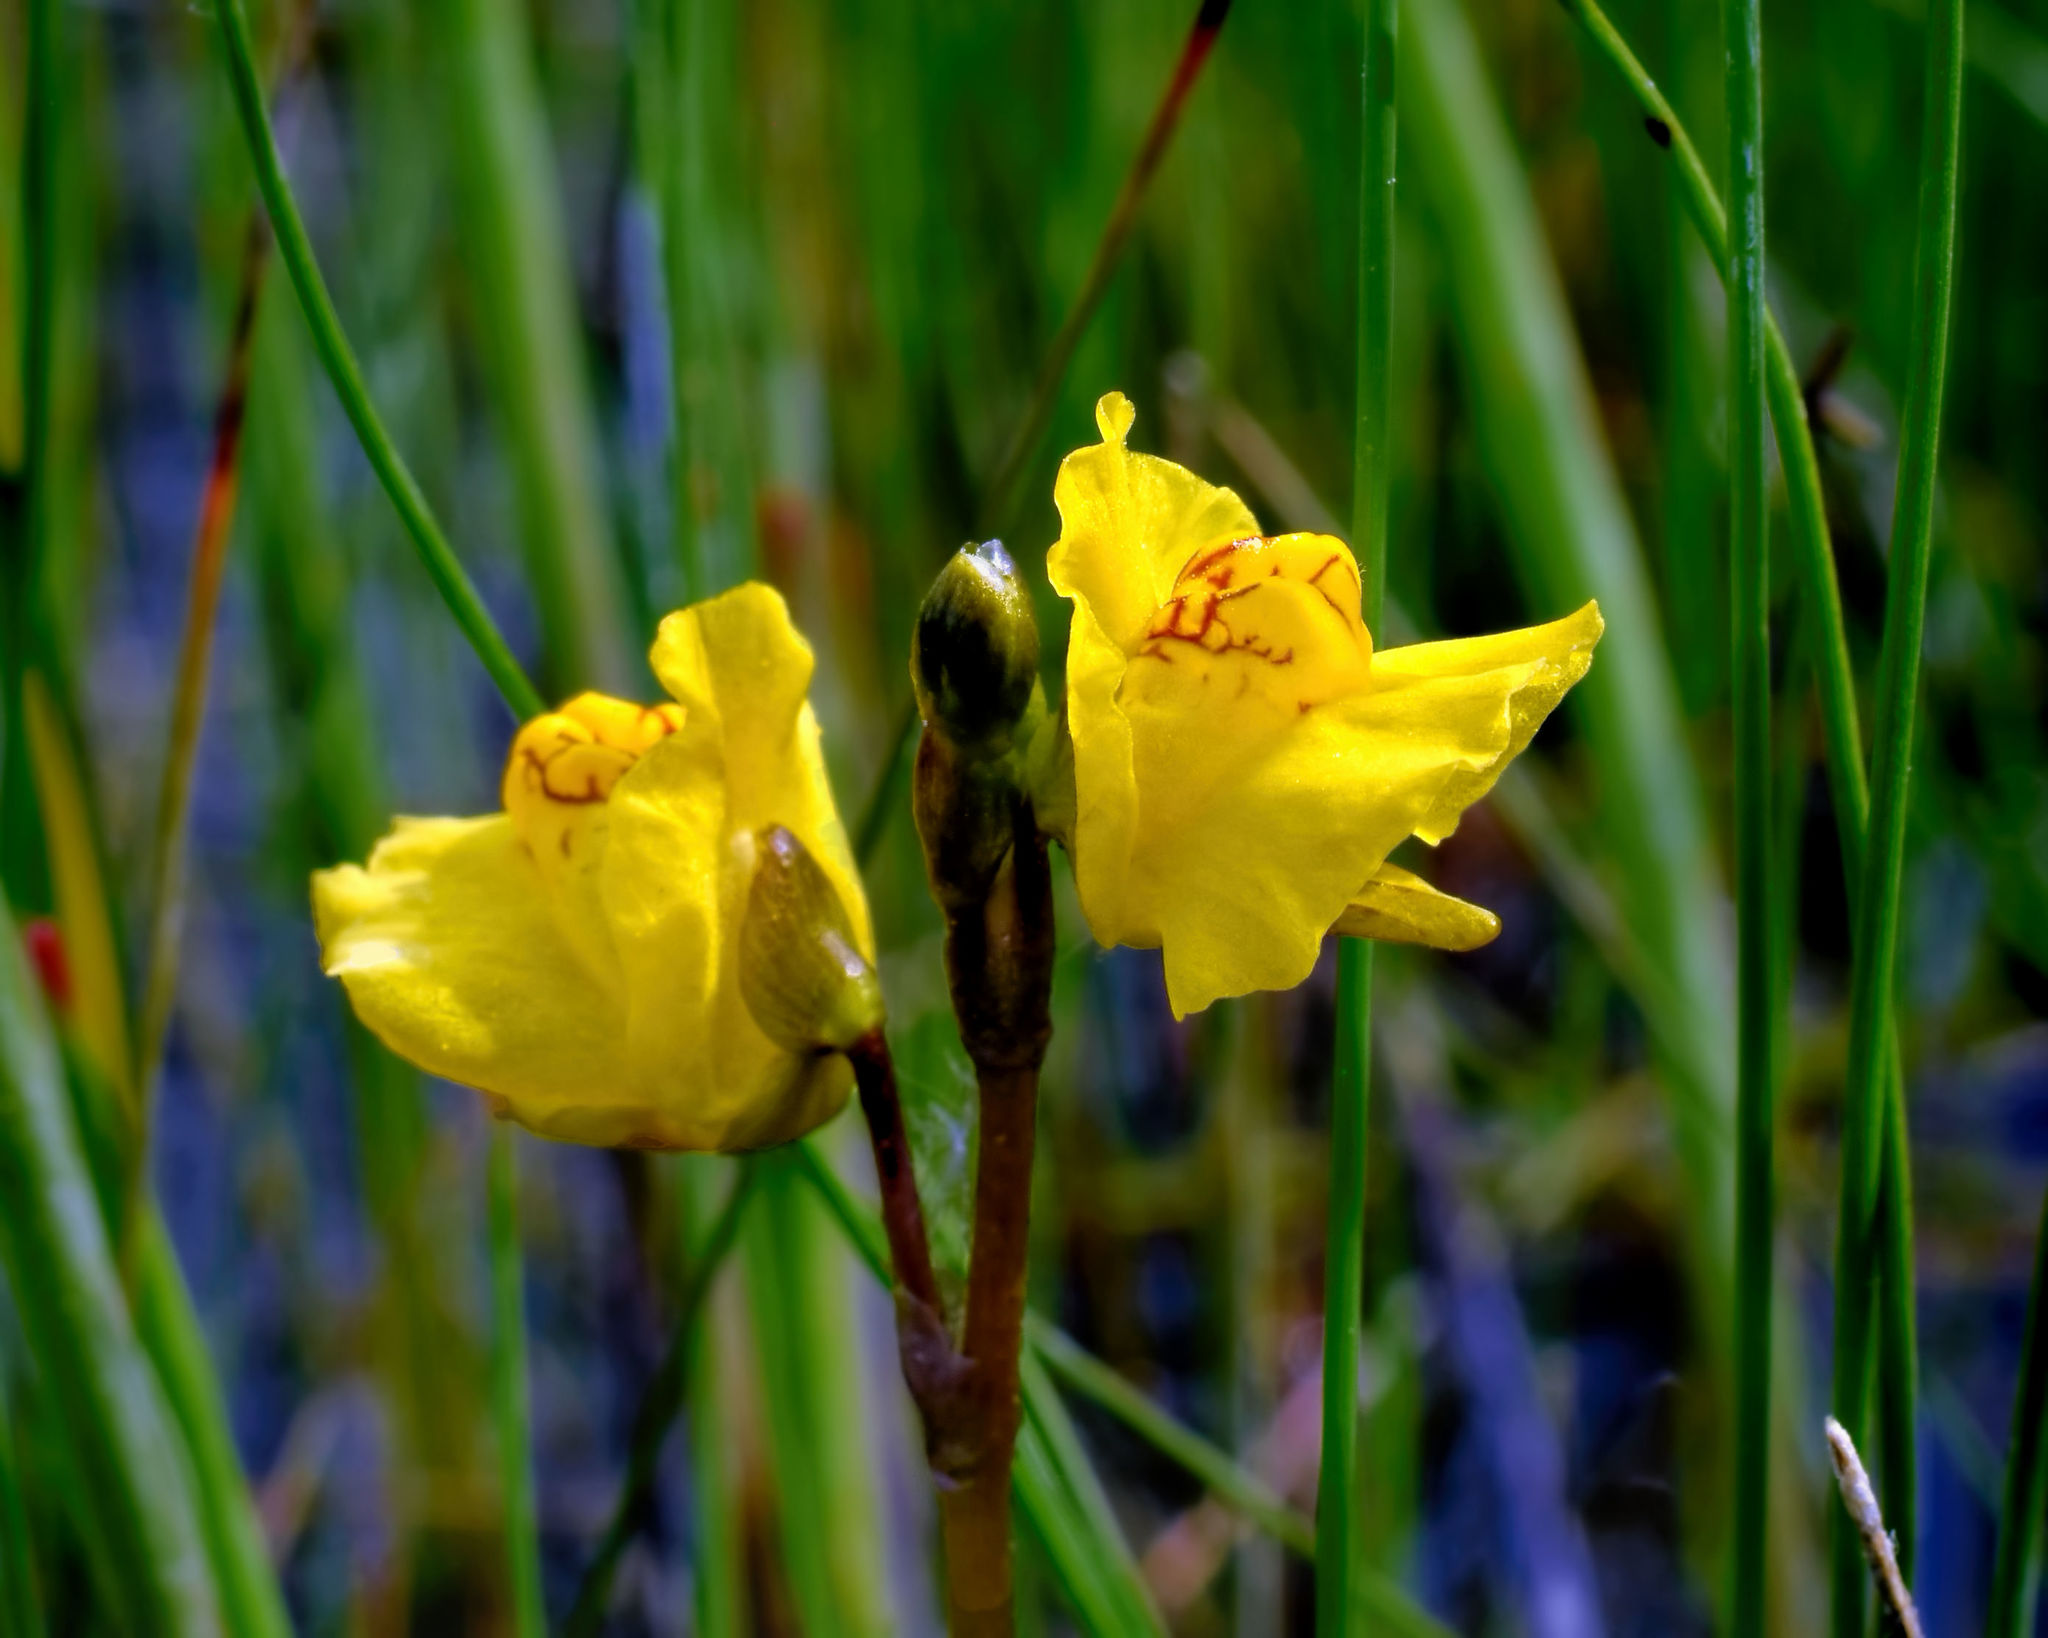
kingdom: Plantae
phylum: Tracheophyta
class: Magnoliopsida
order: Lamiales
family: Lentibulariaceae
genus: Utricularia
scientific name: Utricularia macrorhiza
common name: Common bladderwort
